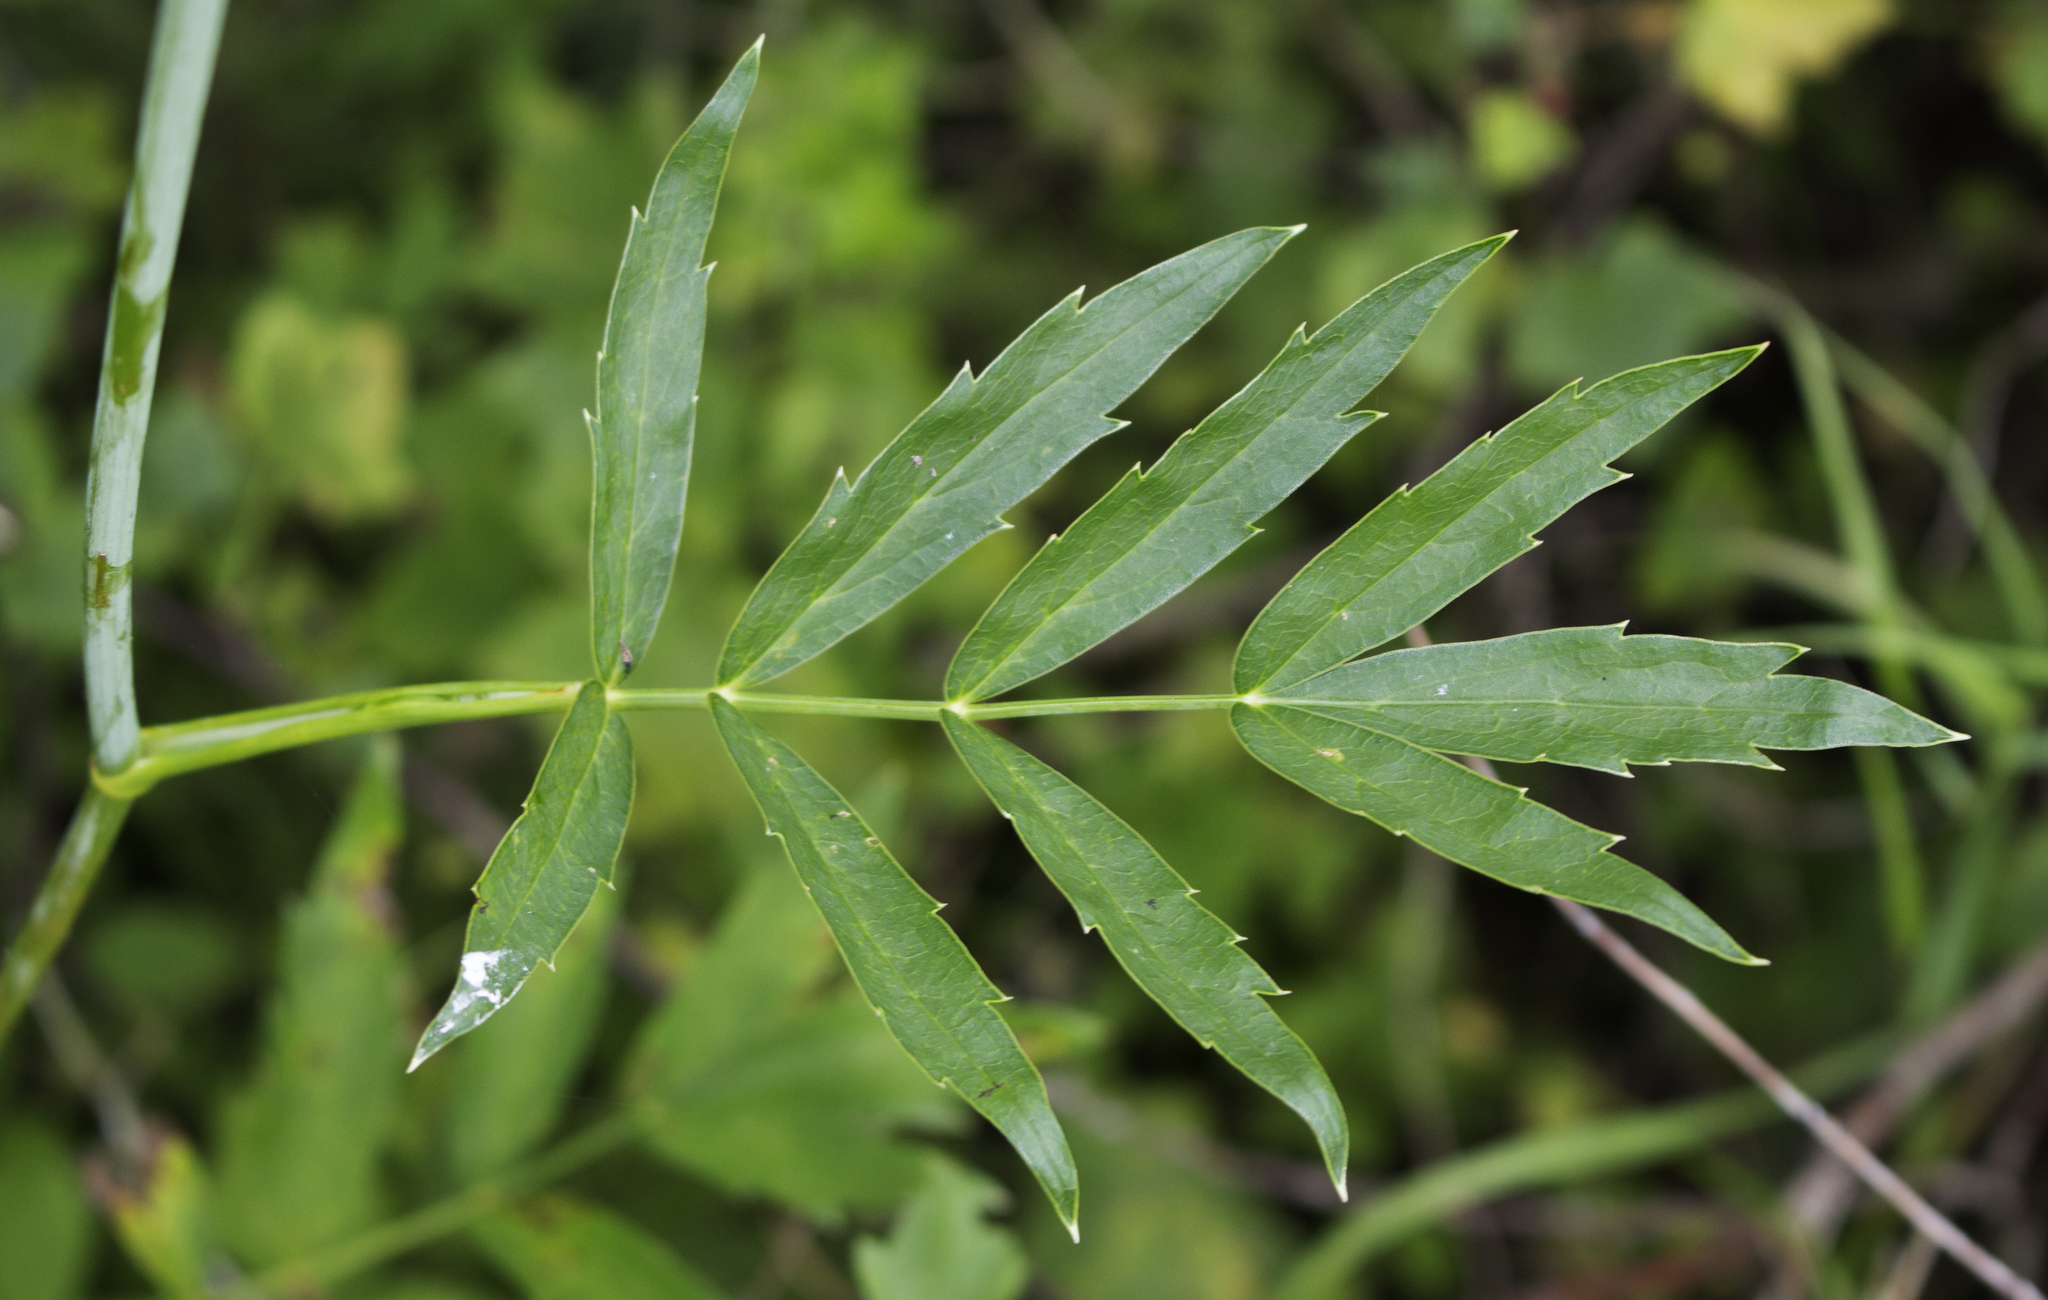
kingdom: Plantae
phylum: Tracheophyta
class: Magnoliopsida
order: Apiales
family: Apiaceae
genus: Oxypolis
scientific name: Oxypolis rigidior
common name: Cowbane
